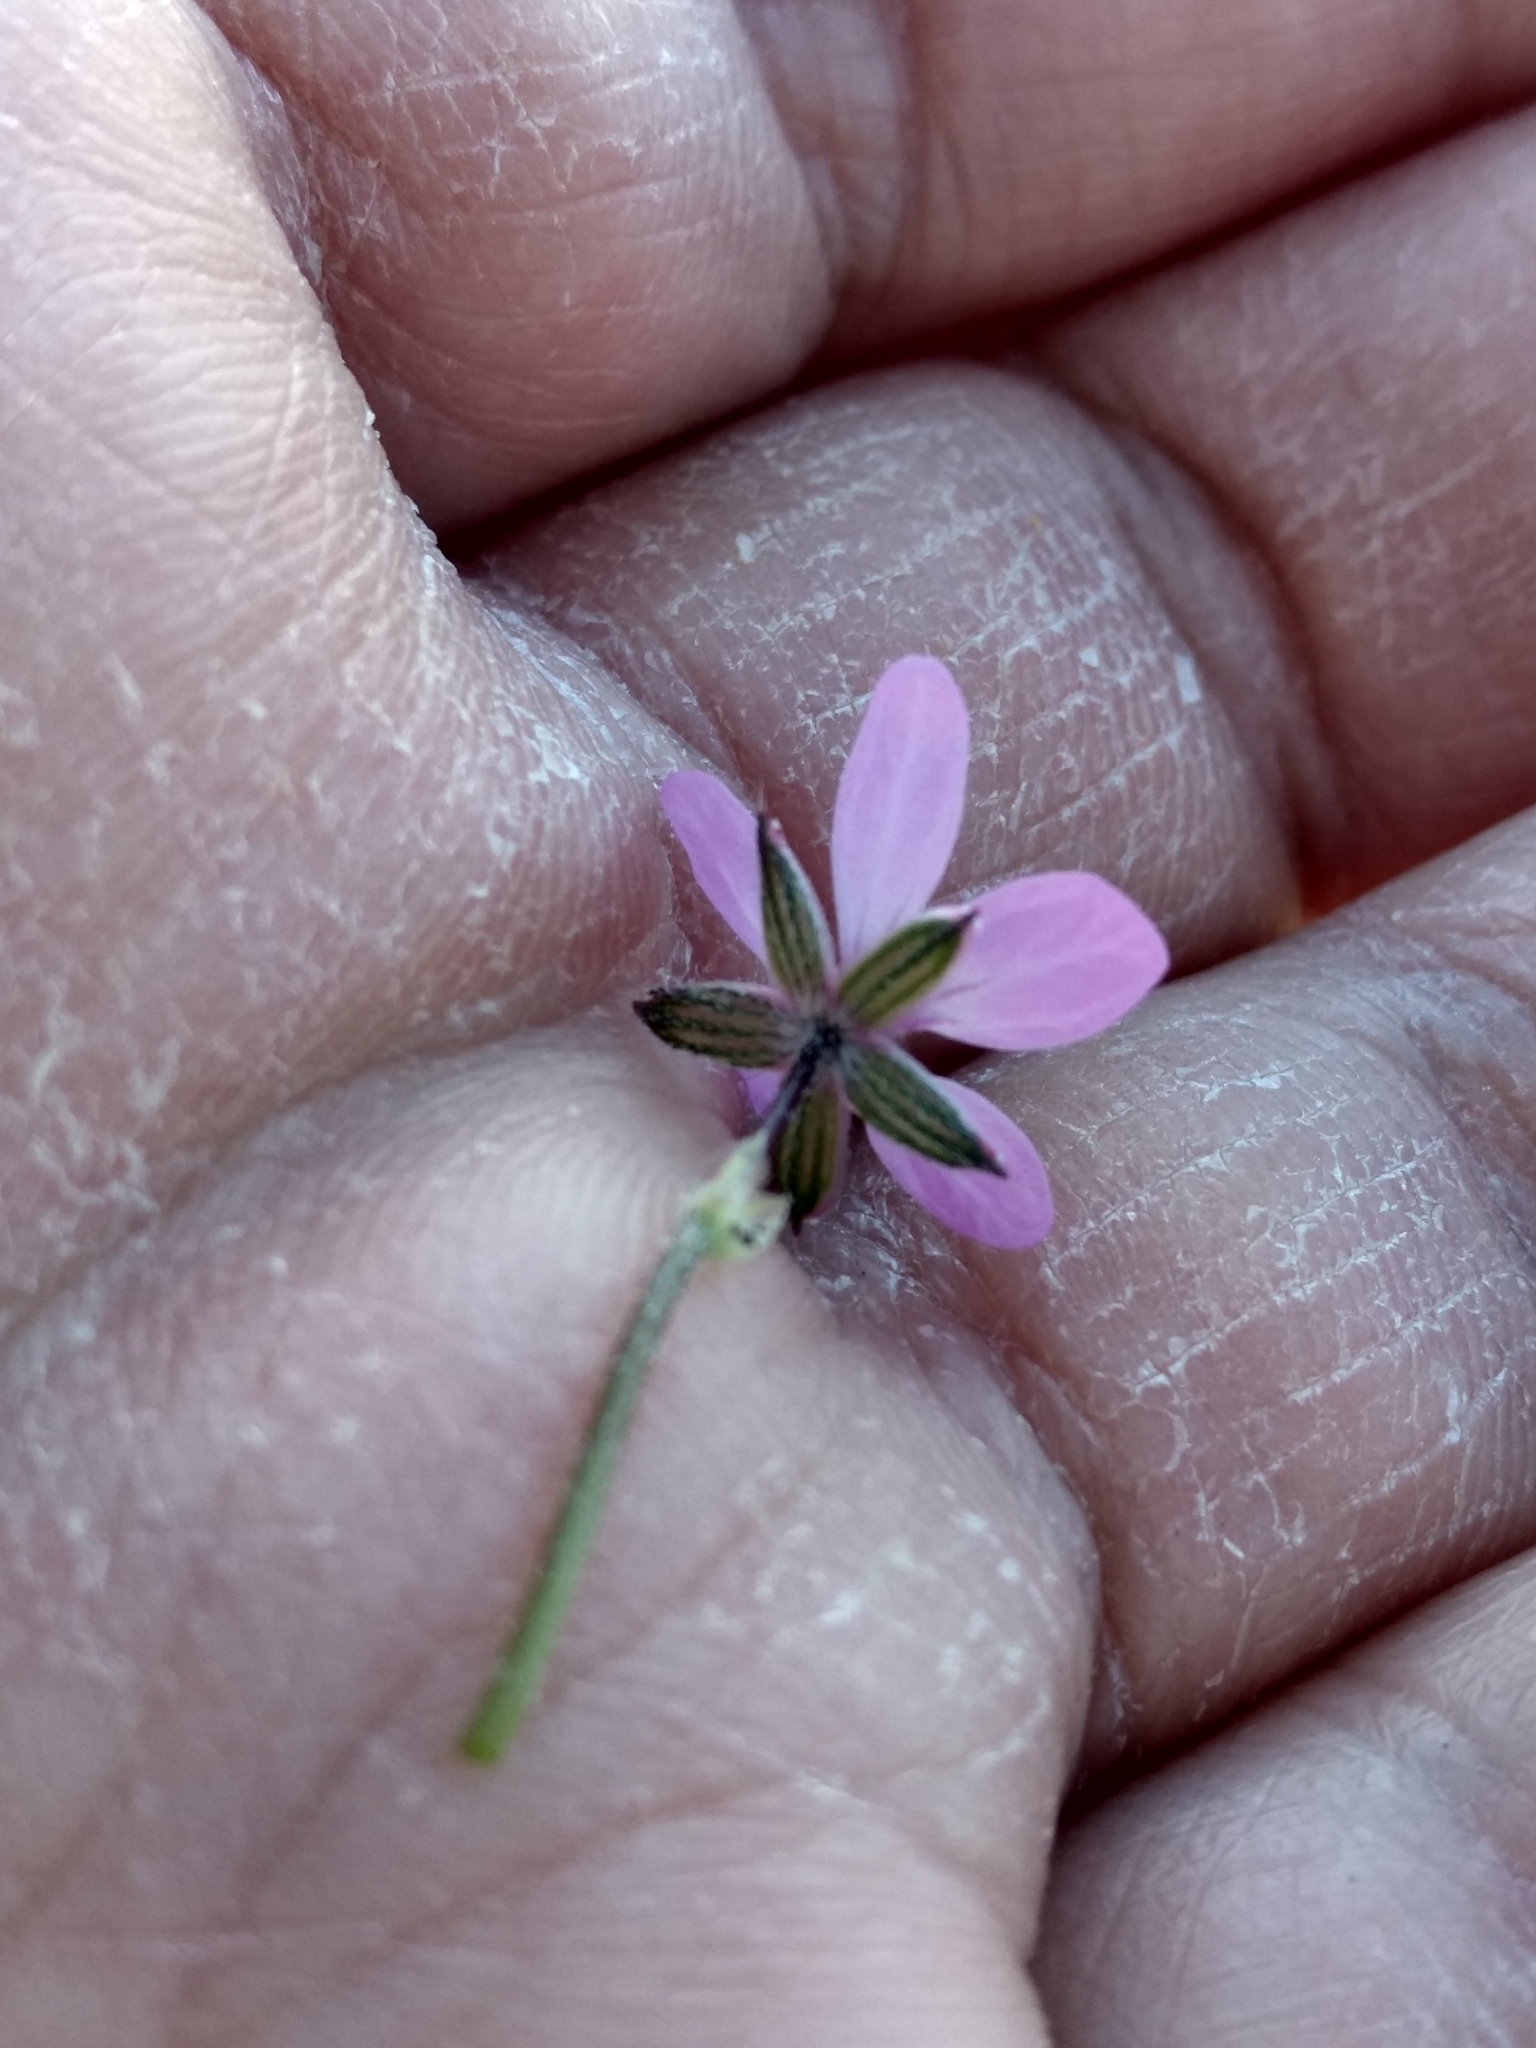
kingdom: Plantae
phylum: Tracheophyta
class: Magnoliopsida
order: Geraniales
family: Geraniaceae
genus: Erodium
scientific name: Erodium cicutarium
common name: Common stork's-bill
